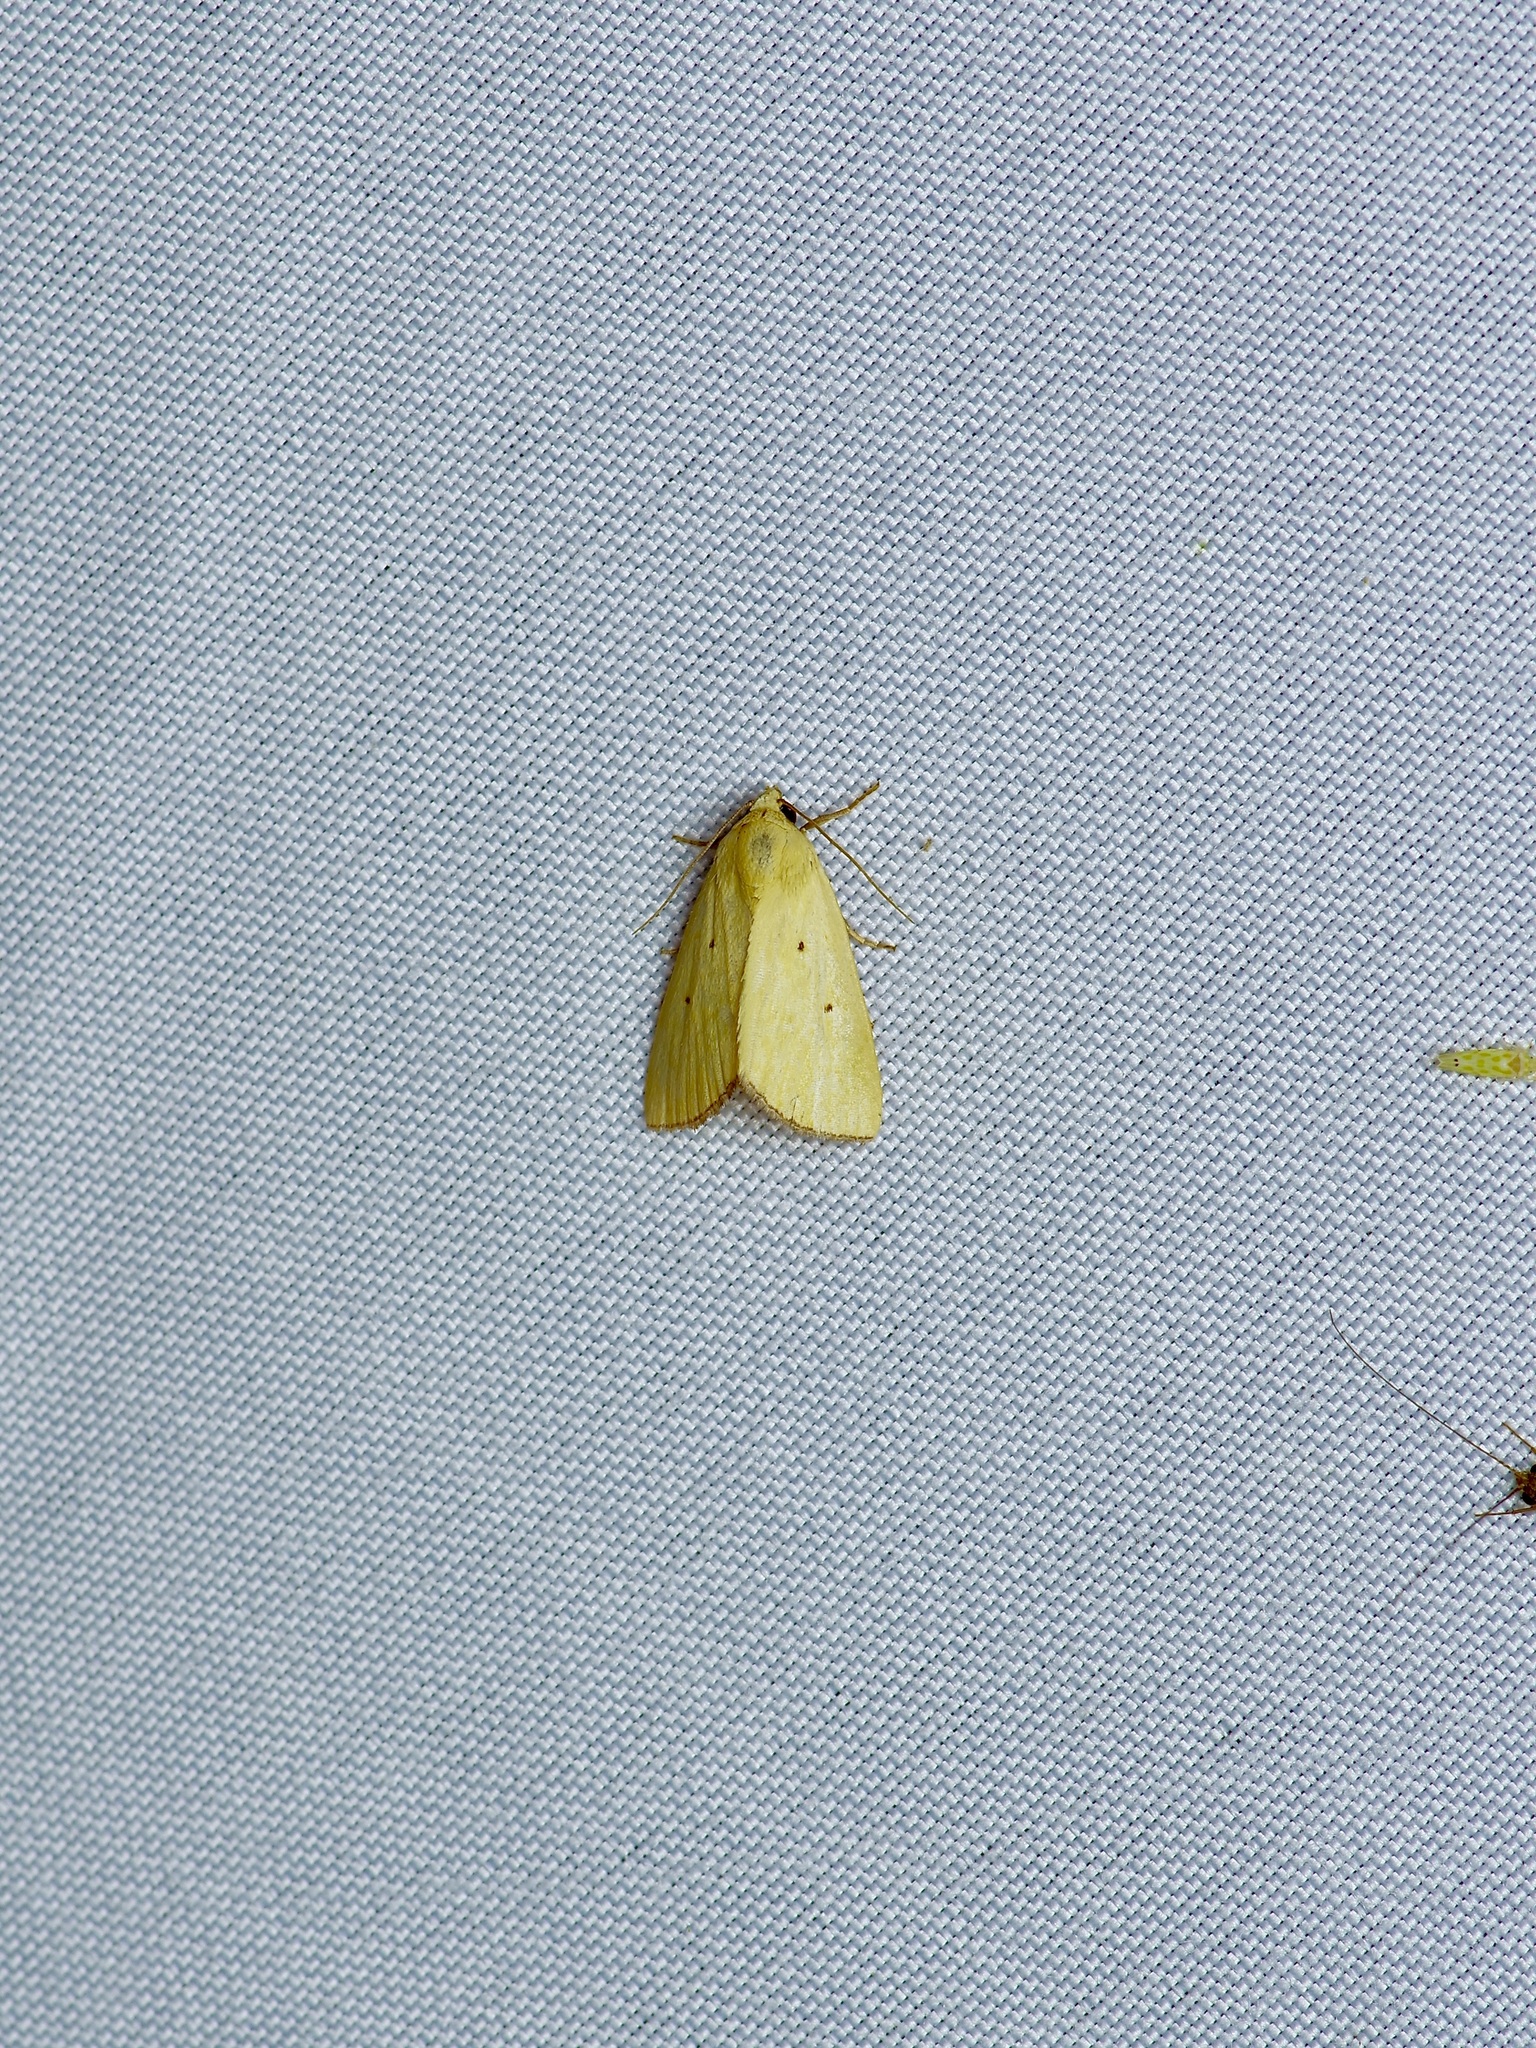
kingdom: Animalia
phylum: Arthropoda
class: Insecta
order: Lepidoptera
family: Noctuidae
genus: Marimatha
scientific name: Marimatha nigrofimbria
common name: Black-bordered lemon moth
